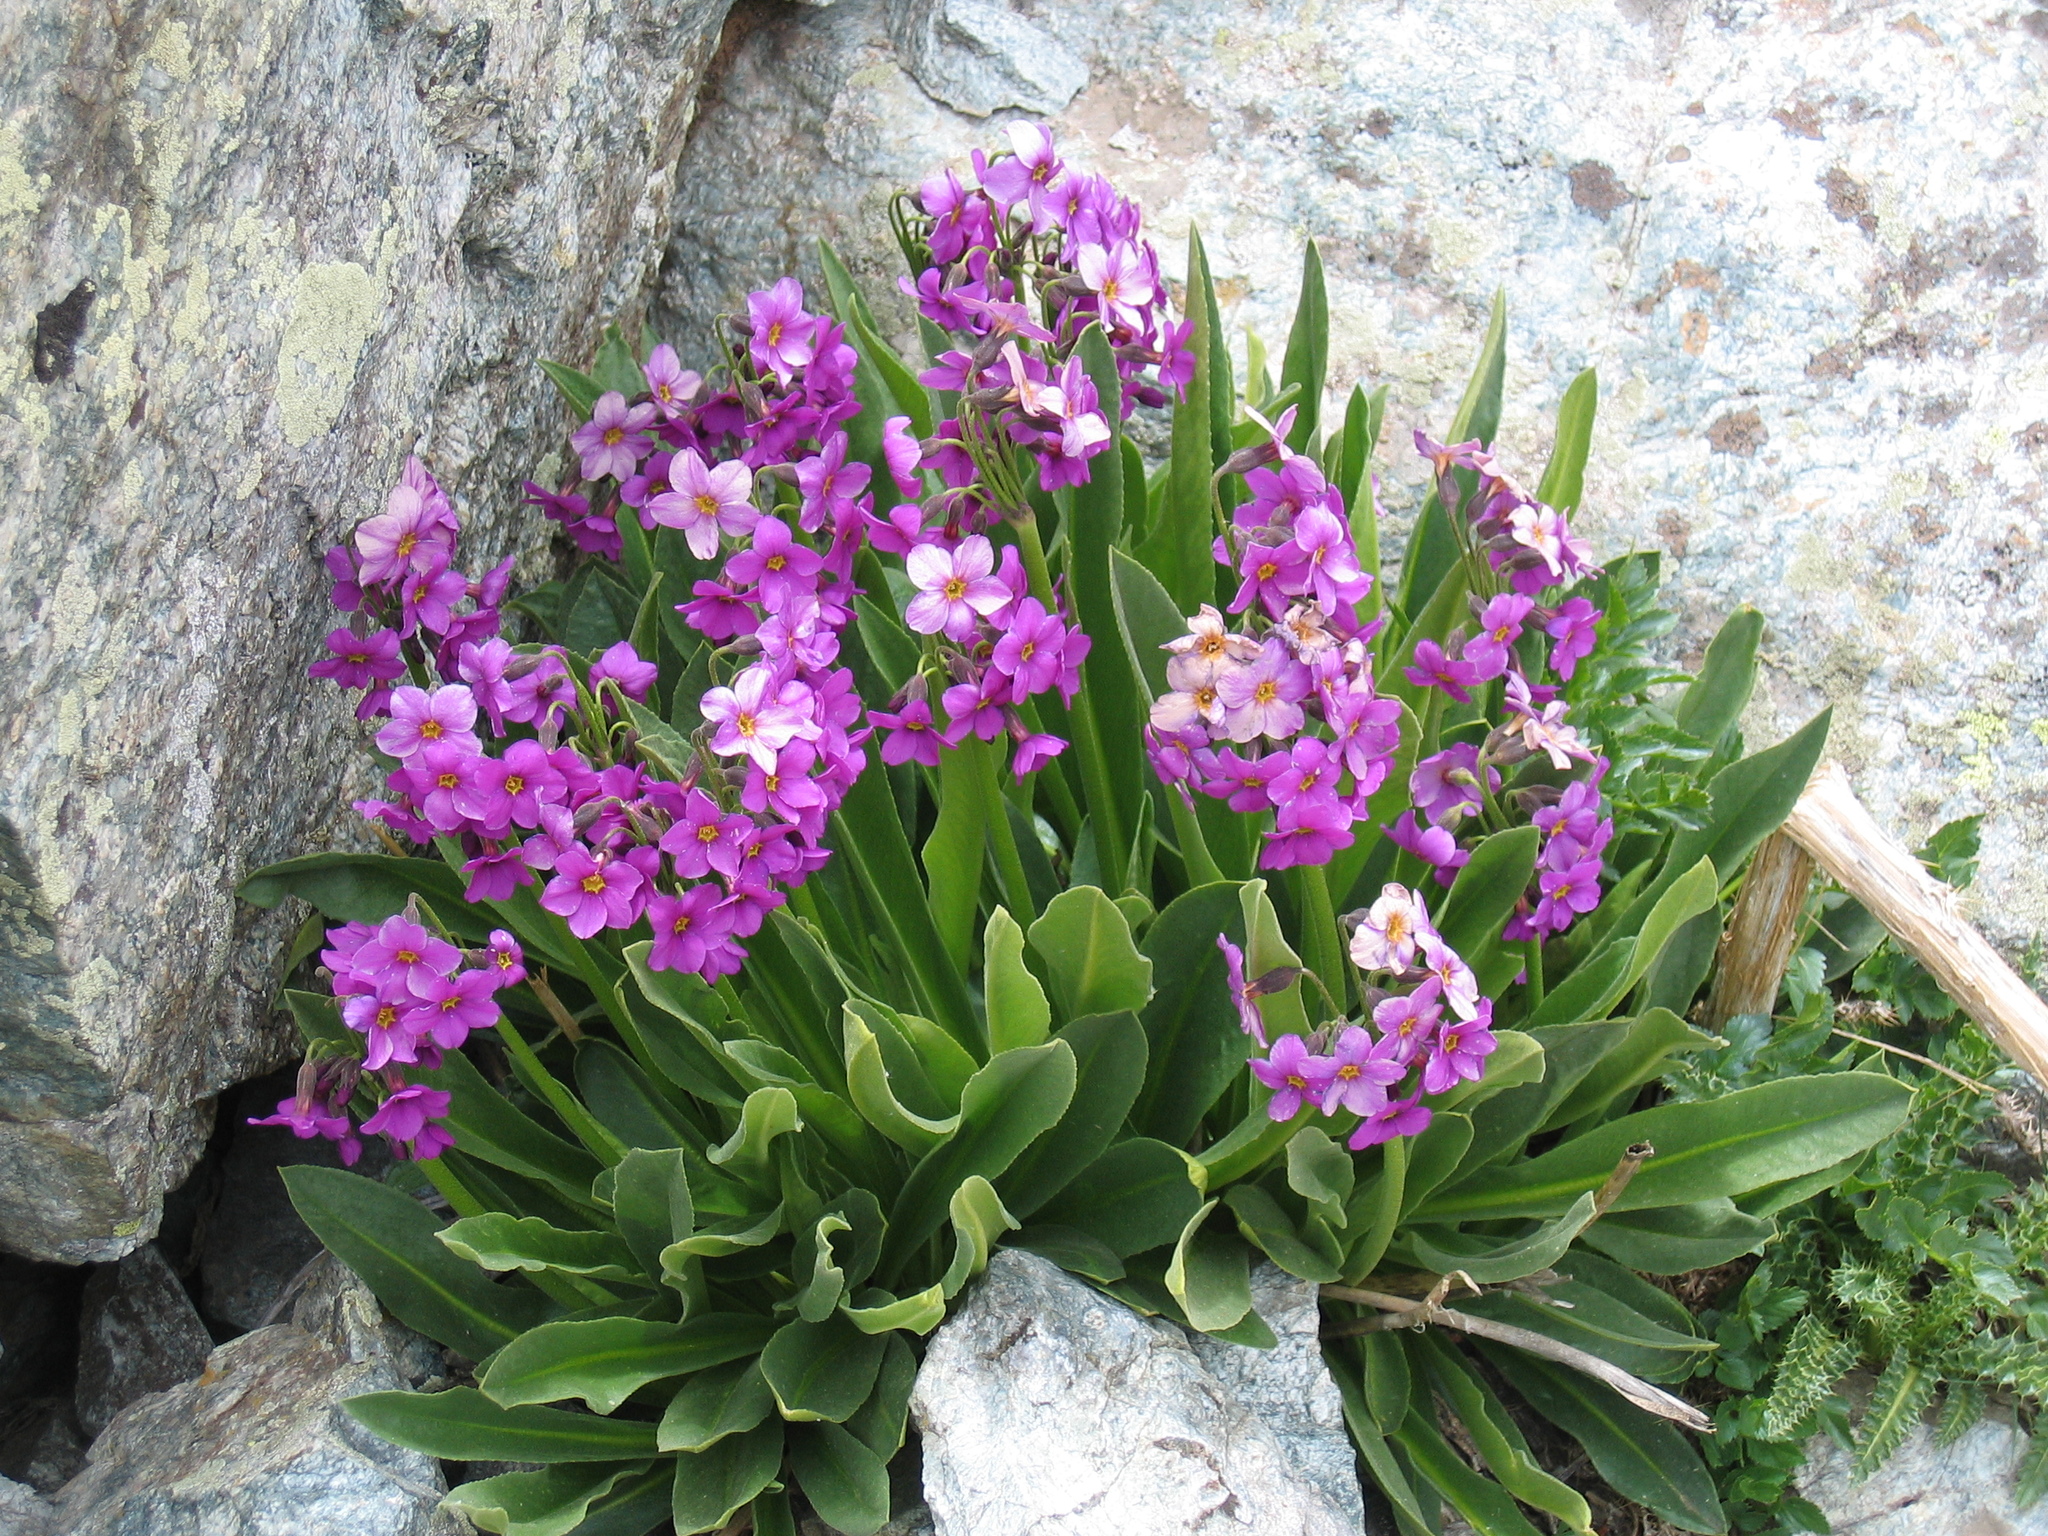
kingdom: Plantae
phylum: Tracheophyta
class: Magnoliopsida
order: Ericales
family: Primulaceae
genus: Primula
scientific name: Primula parryi
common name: Parry's primrose
